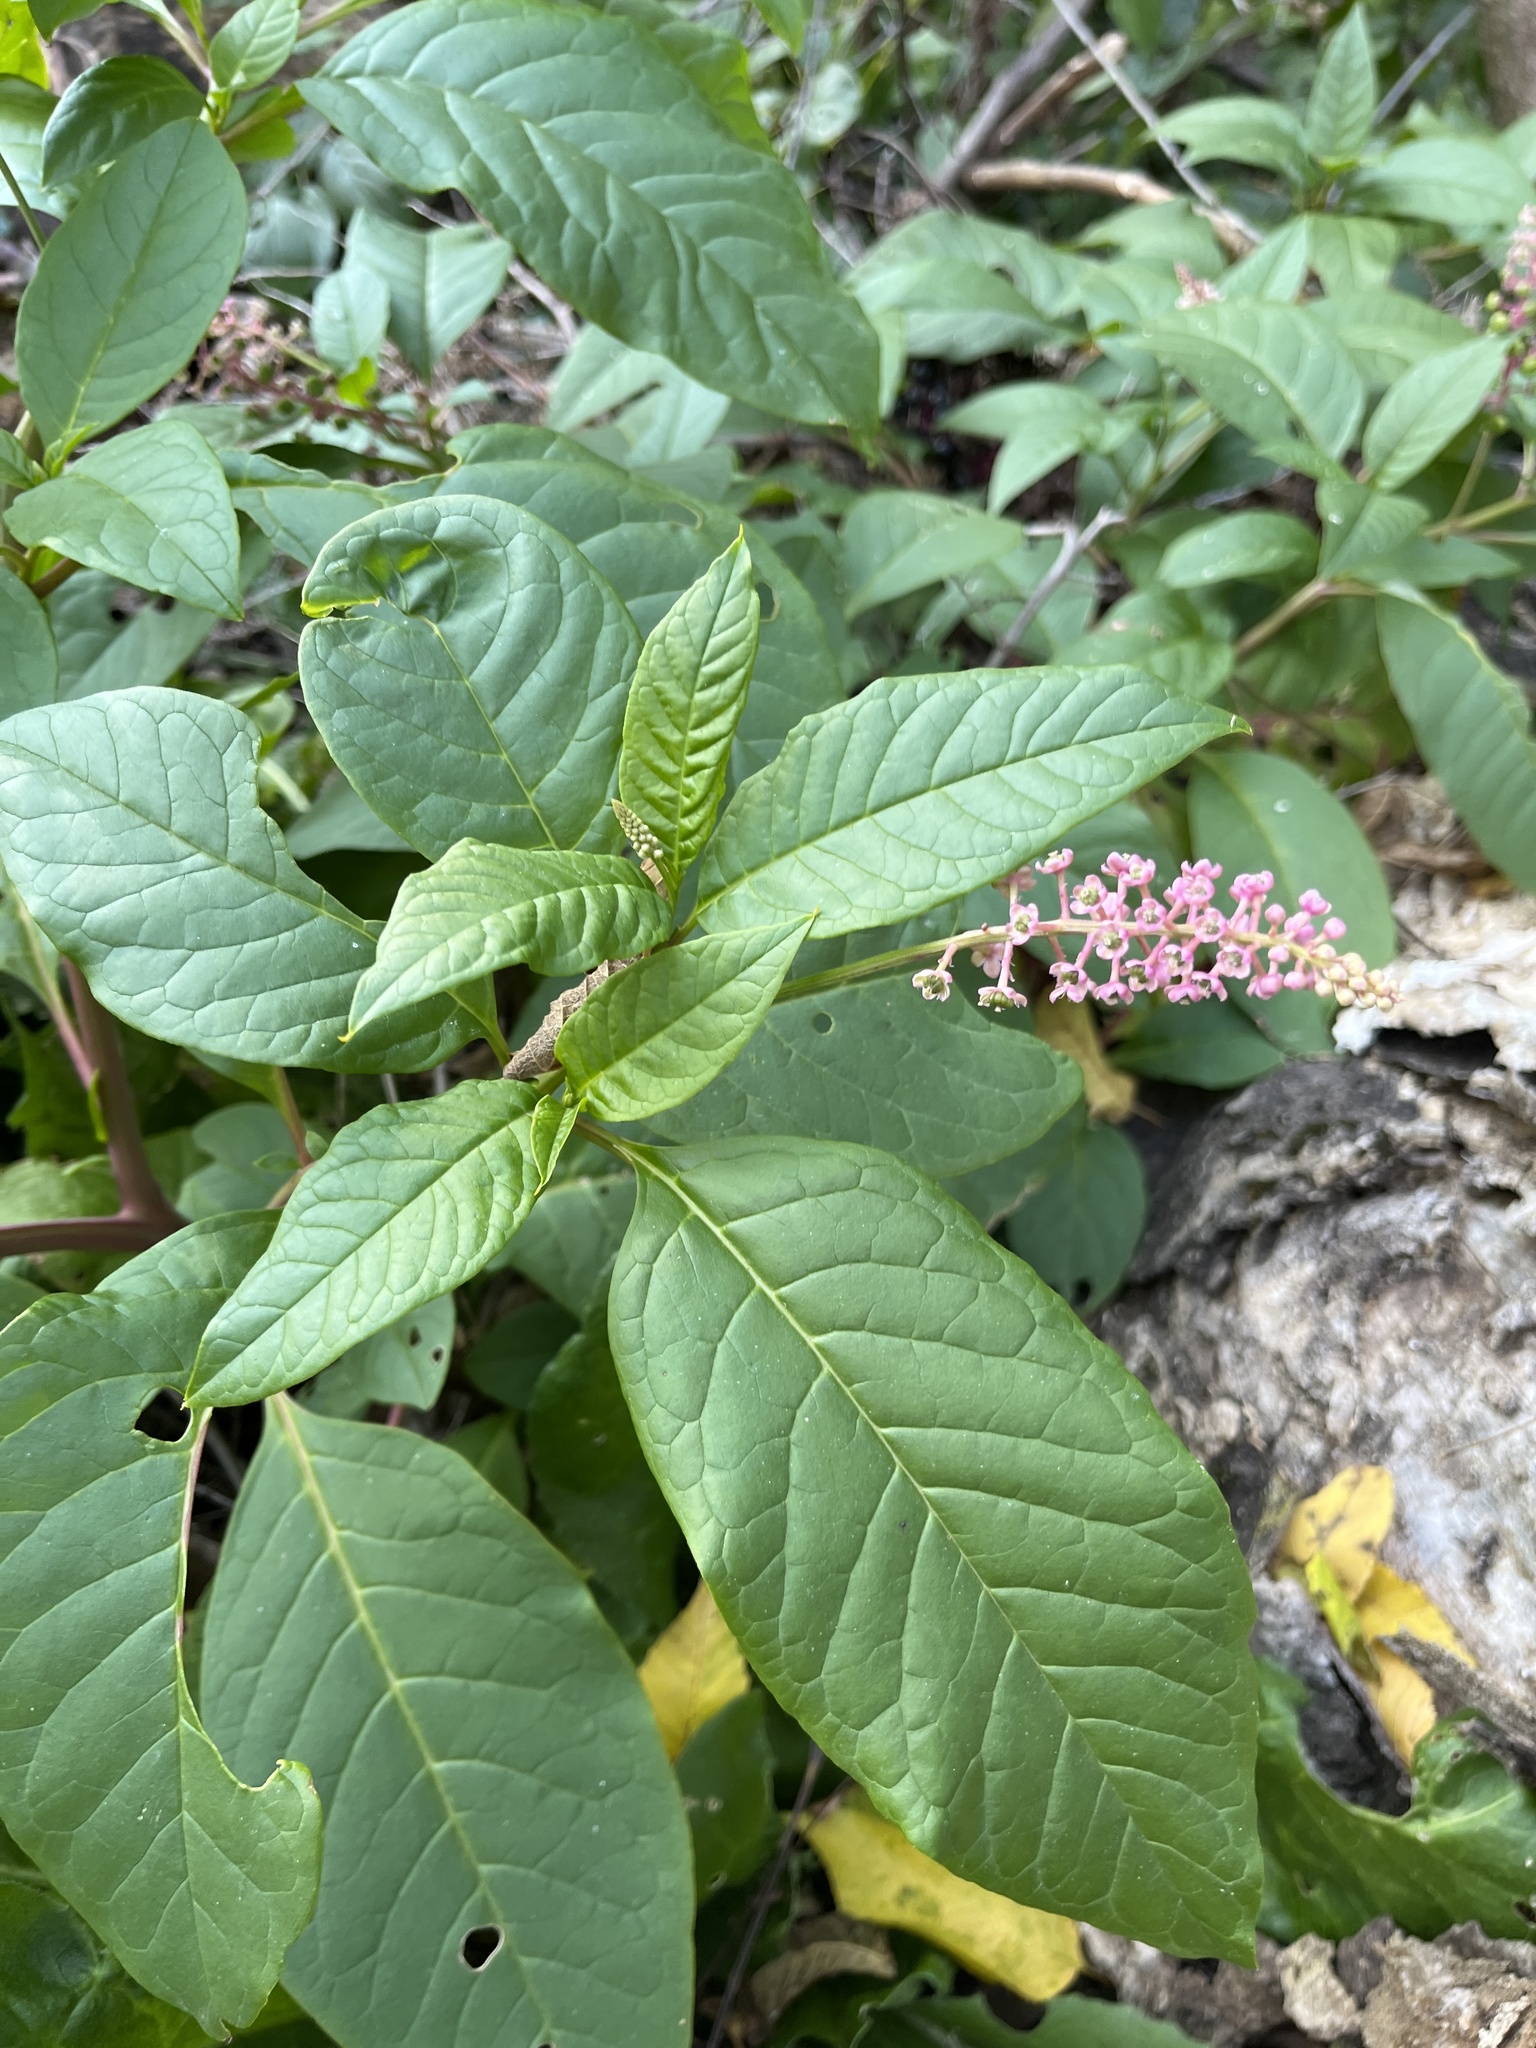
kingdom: Plantae
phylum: Tracheophyta
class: Magnoliopsida
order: Caryophyllales
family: Phytolaccaceae
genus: Phytolacca
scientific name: Phytolacca americana
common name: American pokeweed
